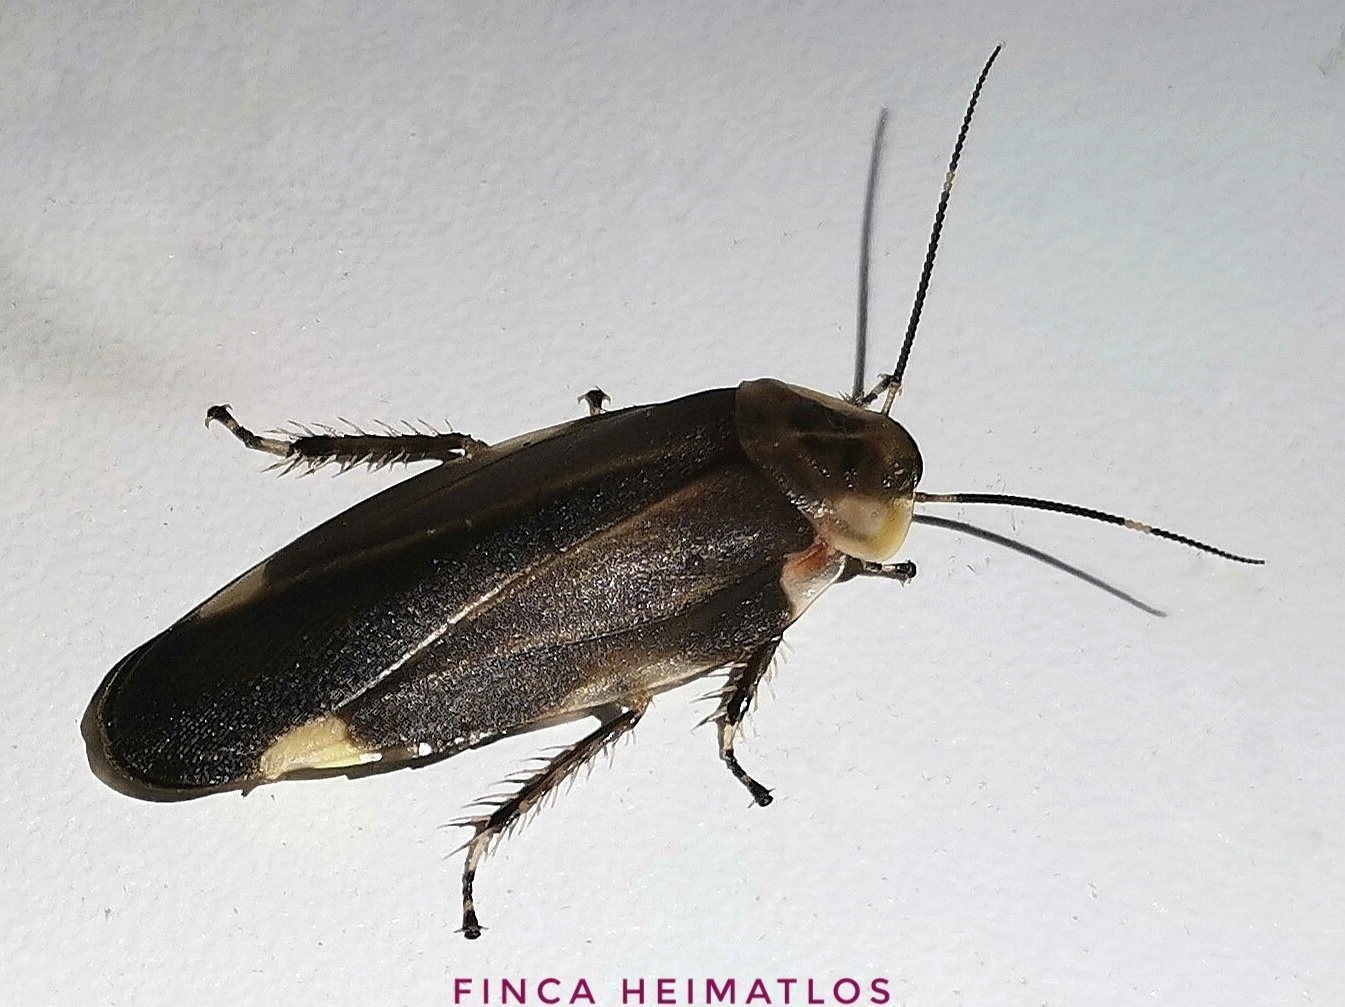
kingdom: Animalia
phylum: Arthropoda
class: Insecta
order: Blattodea
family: Blaberidae
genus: Achroblatta
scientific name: Achroblatta luteola
